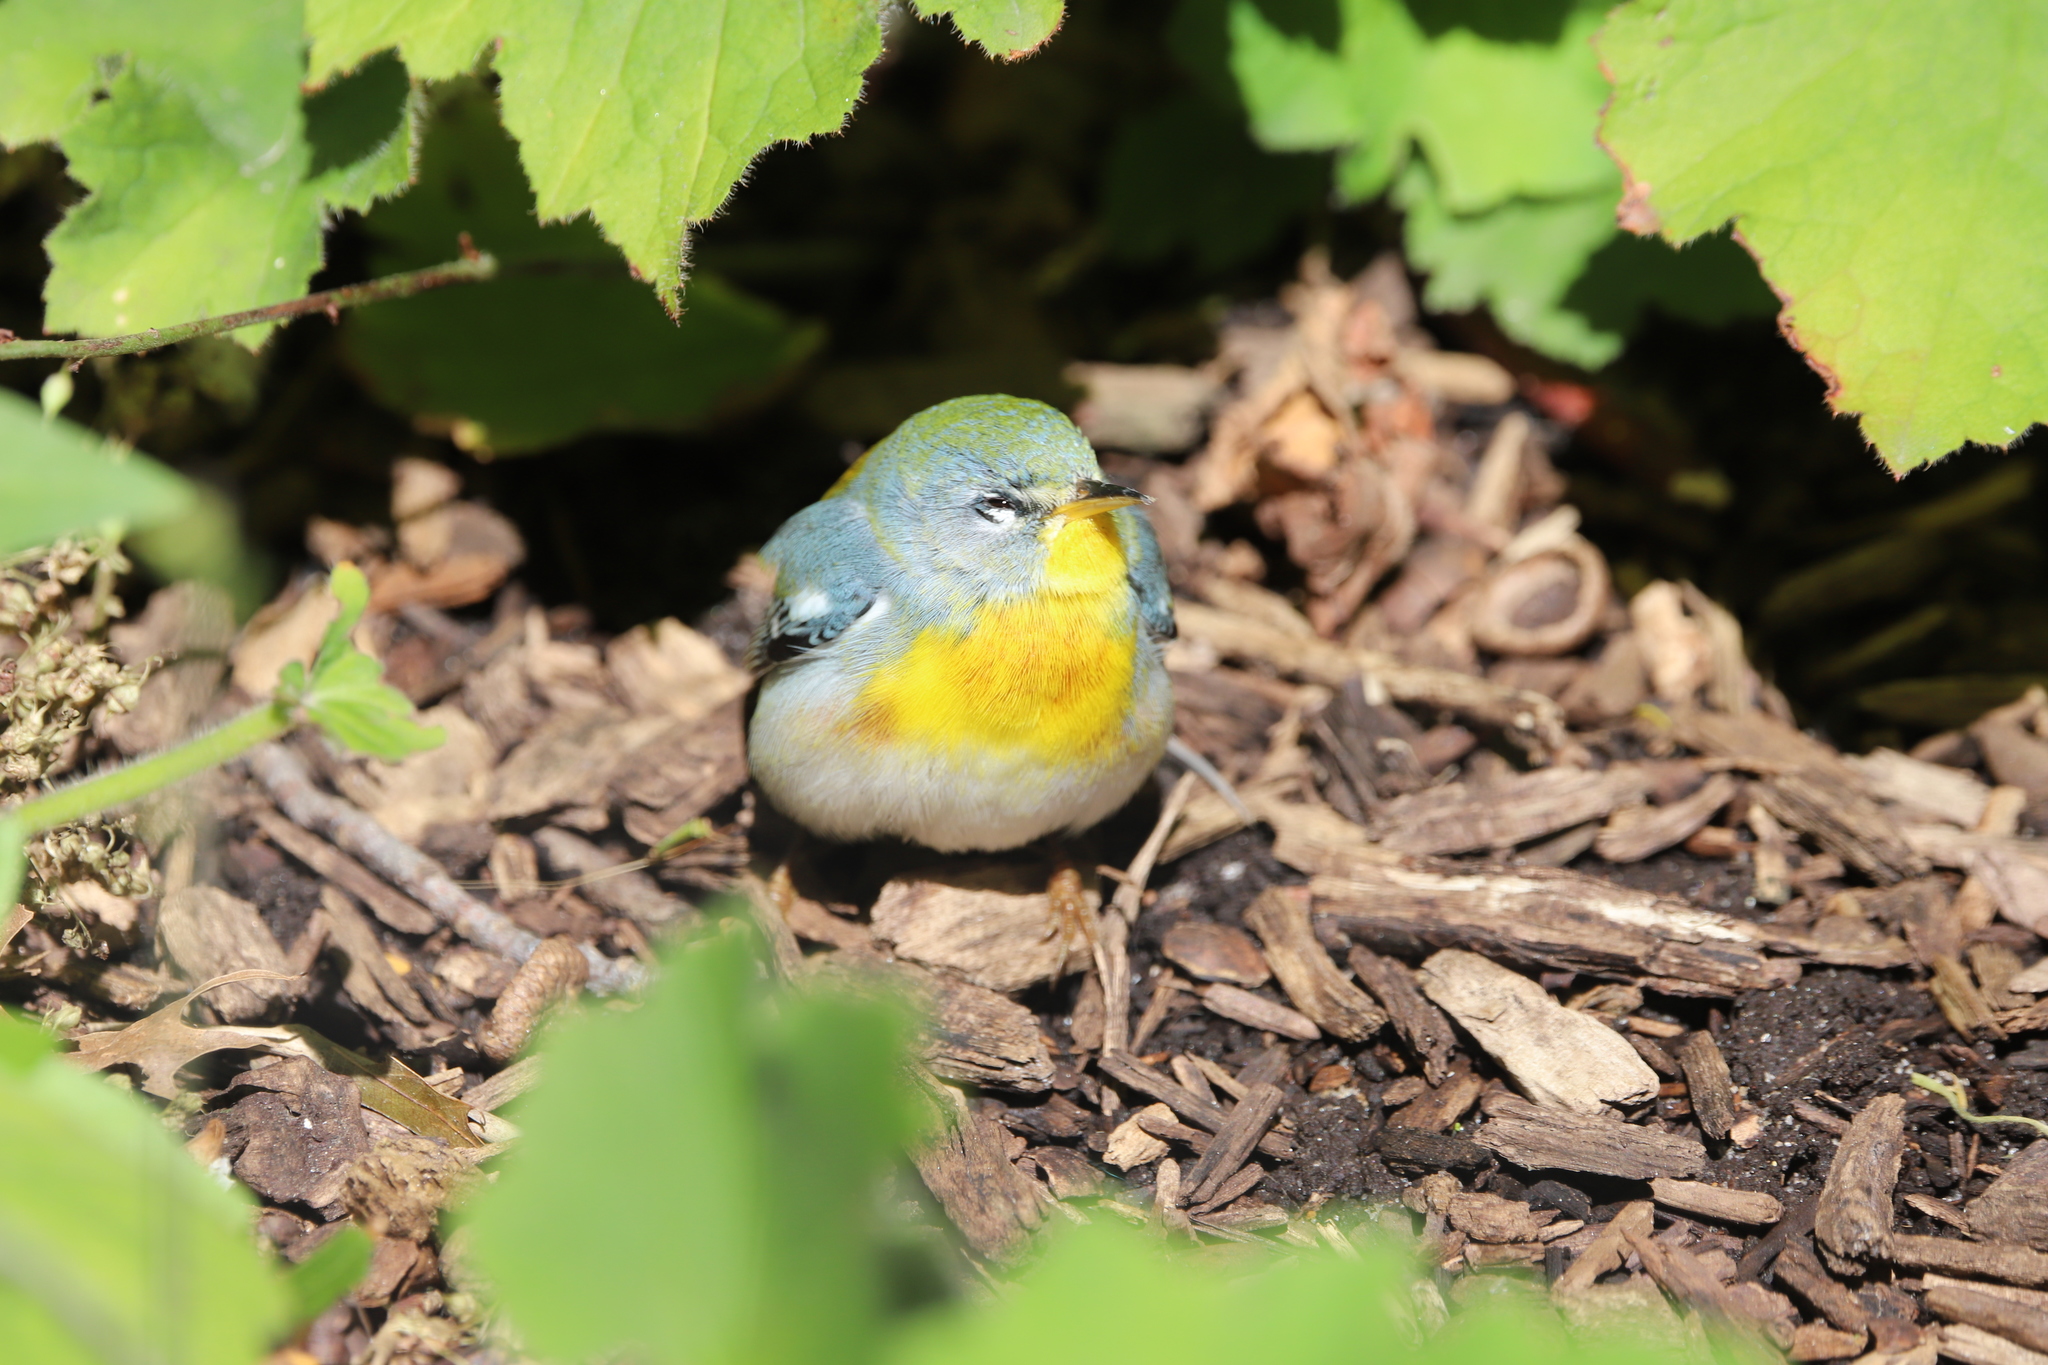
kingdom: Animalia
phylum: Chordata
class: Aves
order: Passeriformes
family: Parulidae
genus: Setophaga
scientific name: Setophaga americana
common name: Northern parula
